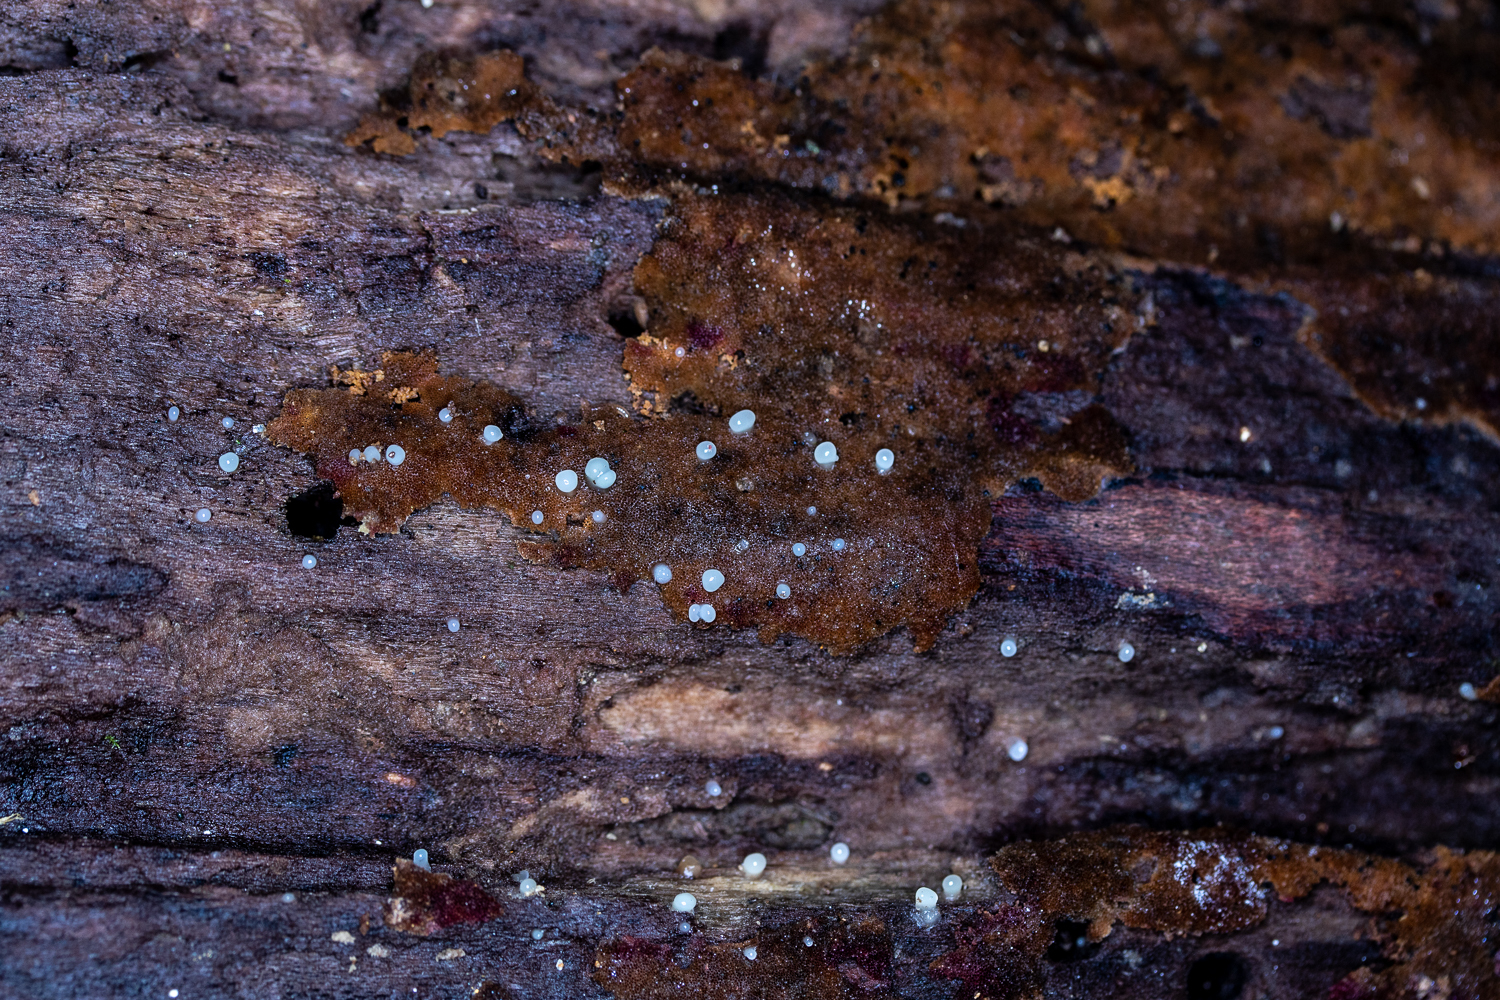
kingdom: Fungi
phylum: Basidiomycota
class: Atractiellomycetes
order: Atractiellales
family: Phleogenaceae
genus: Helicogloea
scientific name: Helicogloea compressa
